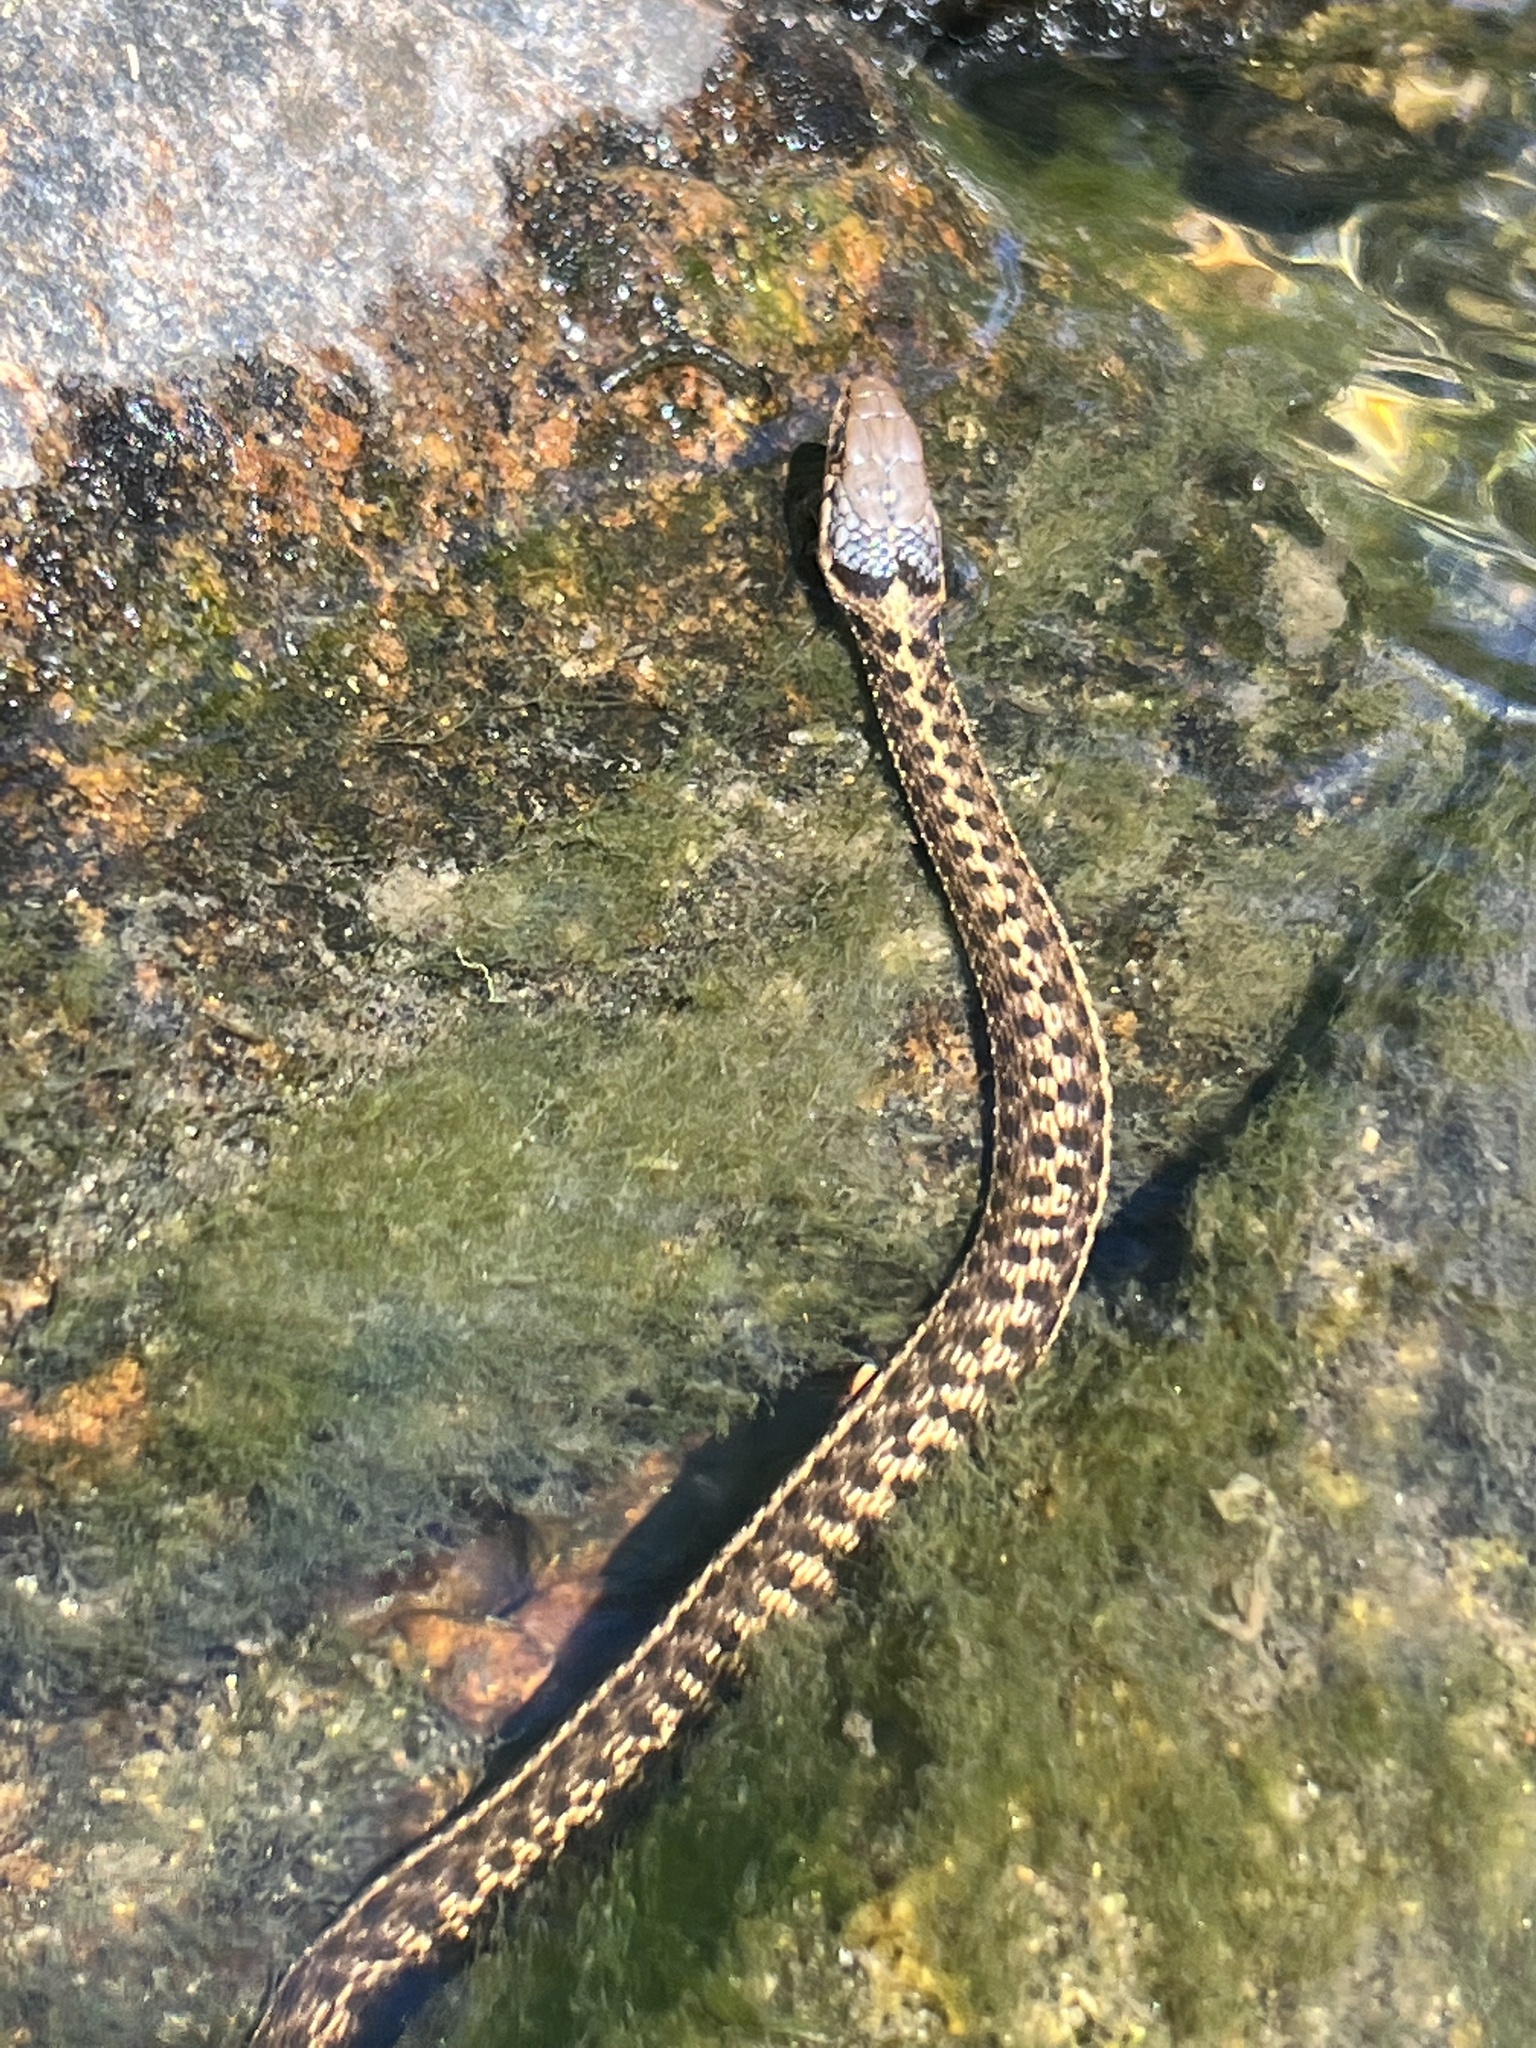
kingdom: Animalia
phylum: Chordata
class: Squamata
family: Colubridae
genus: Thamnophis
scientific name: Thamnophis elegans
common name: Western terrestrial garter snake
